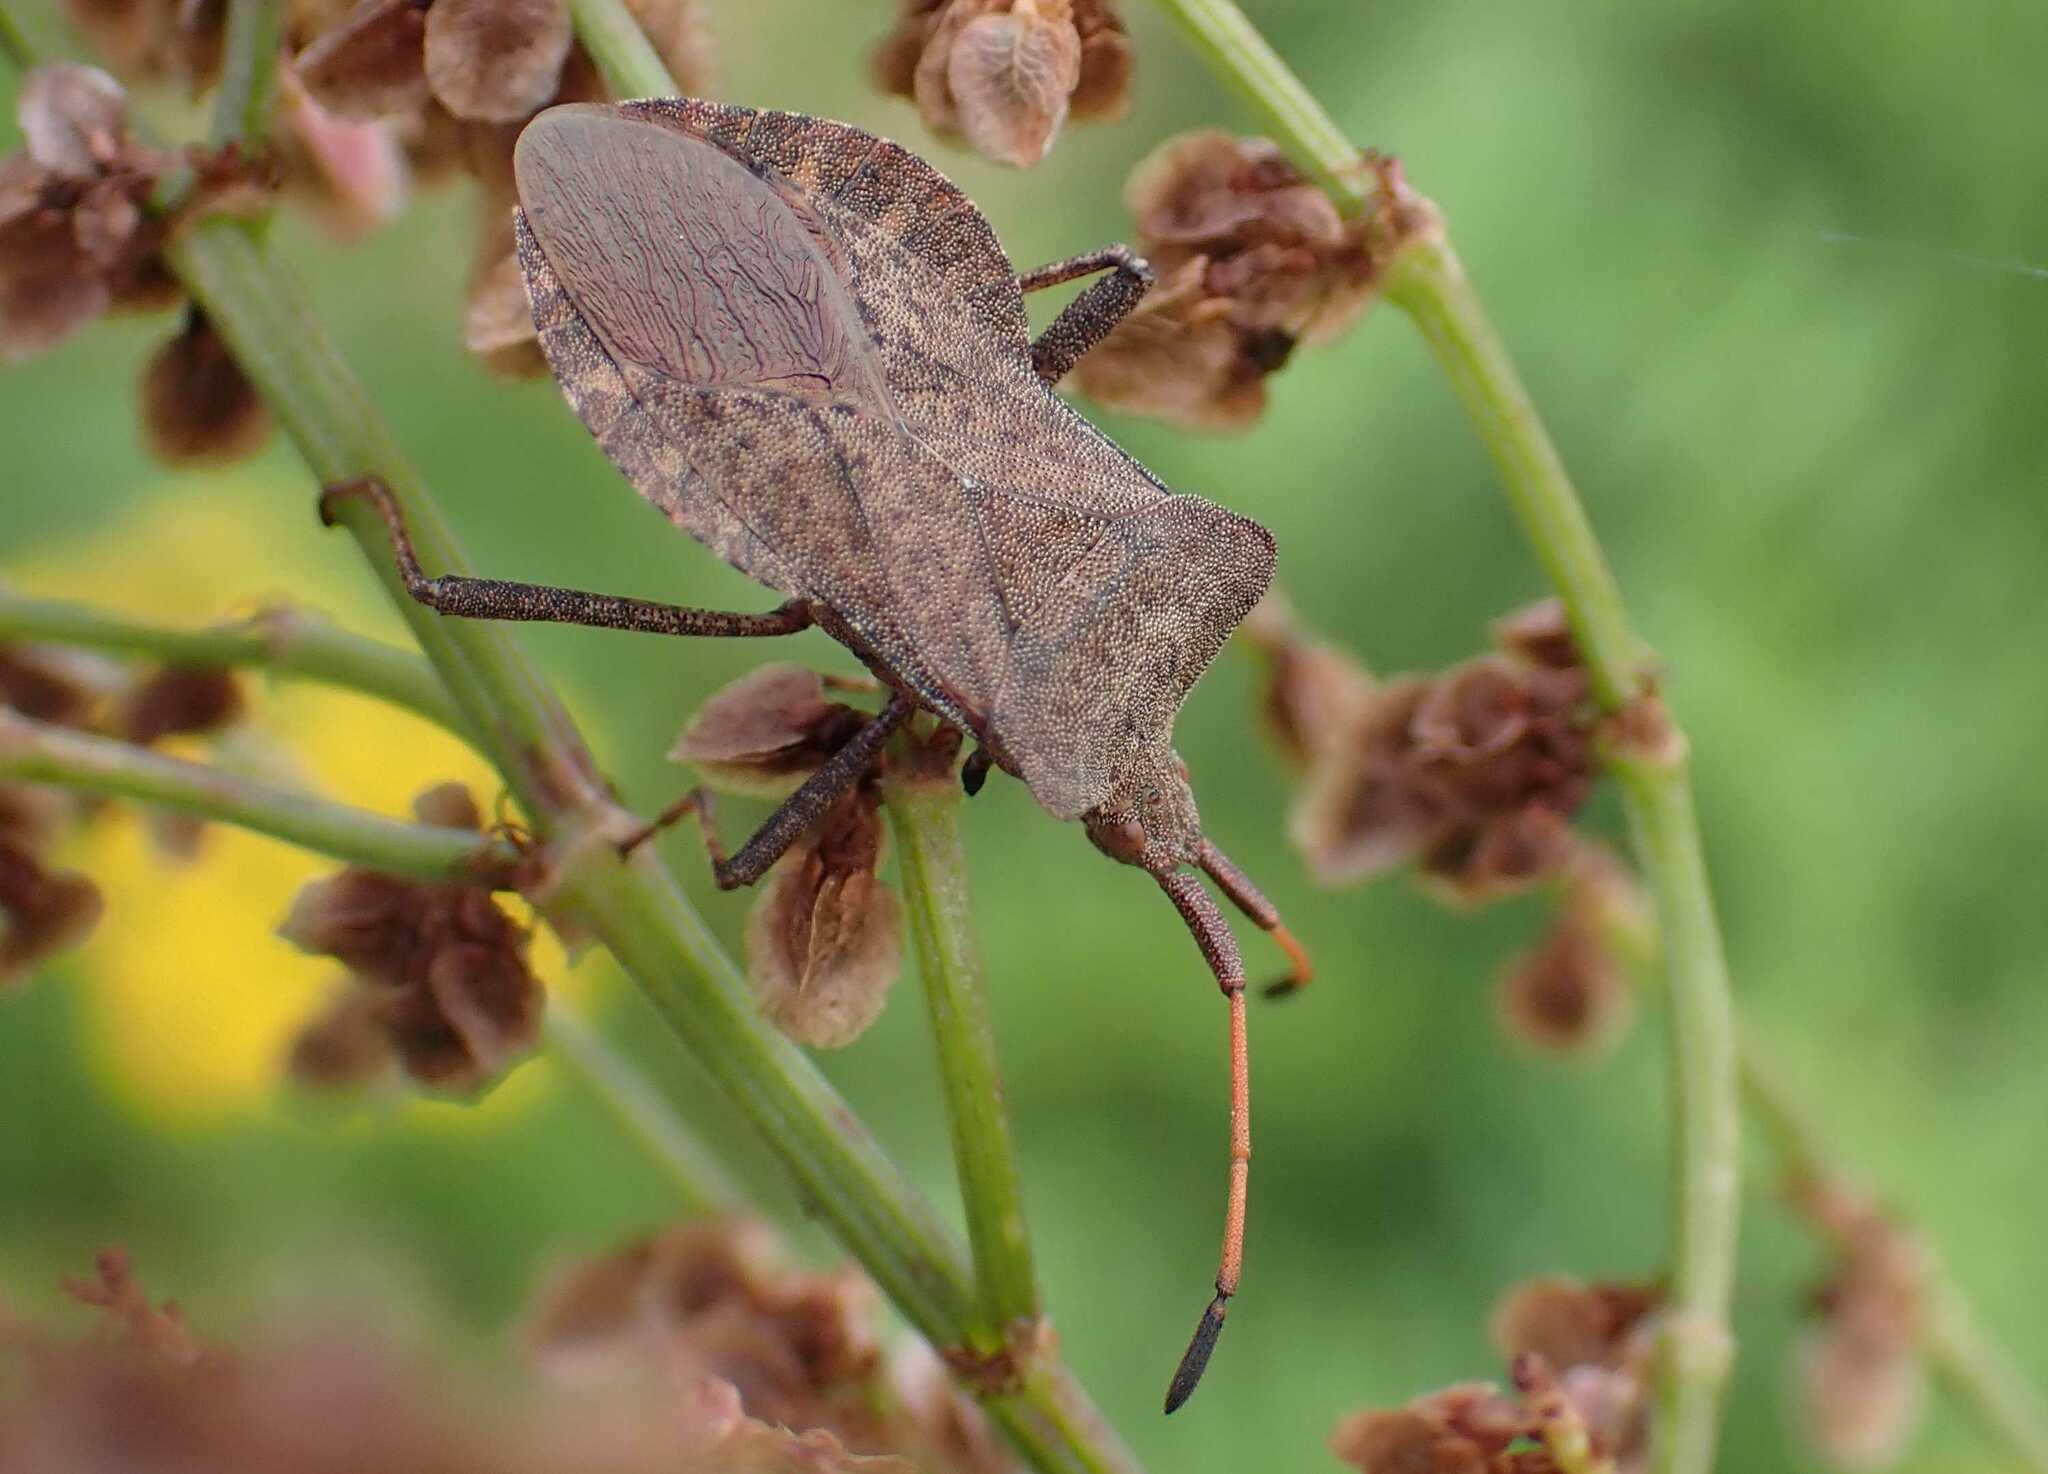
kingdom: Animalia
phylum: Arthropoda
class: Insecta
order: Hemiptera
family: Coreidae
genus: Coreus
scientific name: Coreus marginatus
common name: Dock bug
